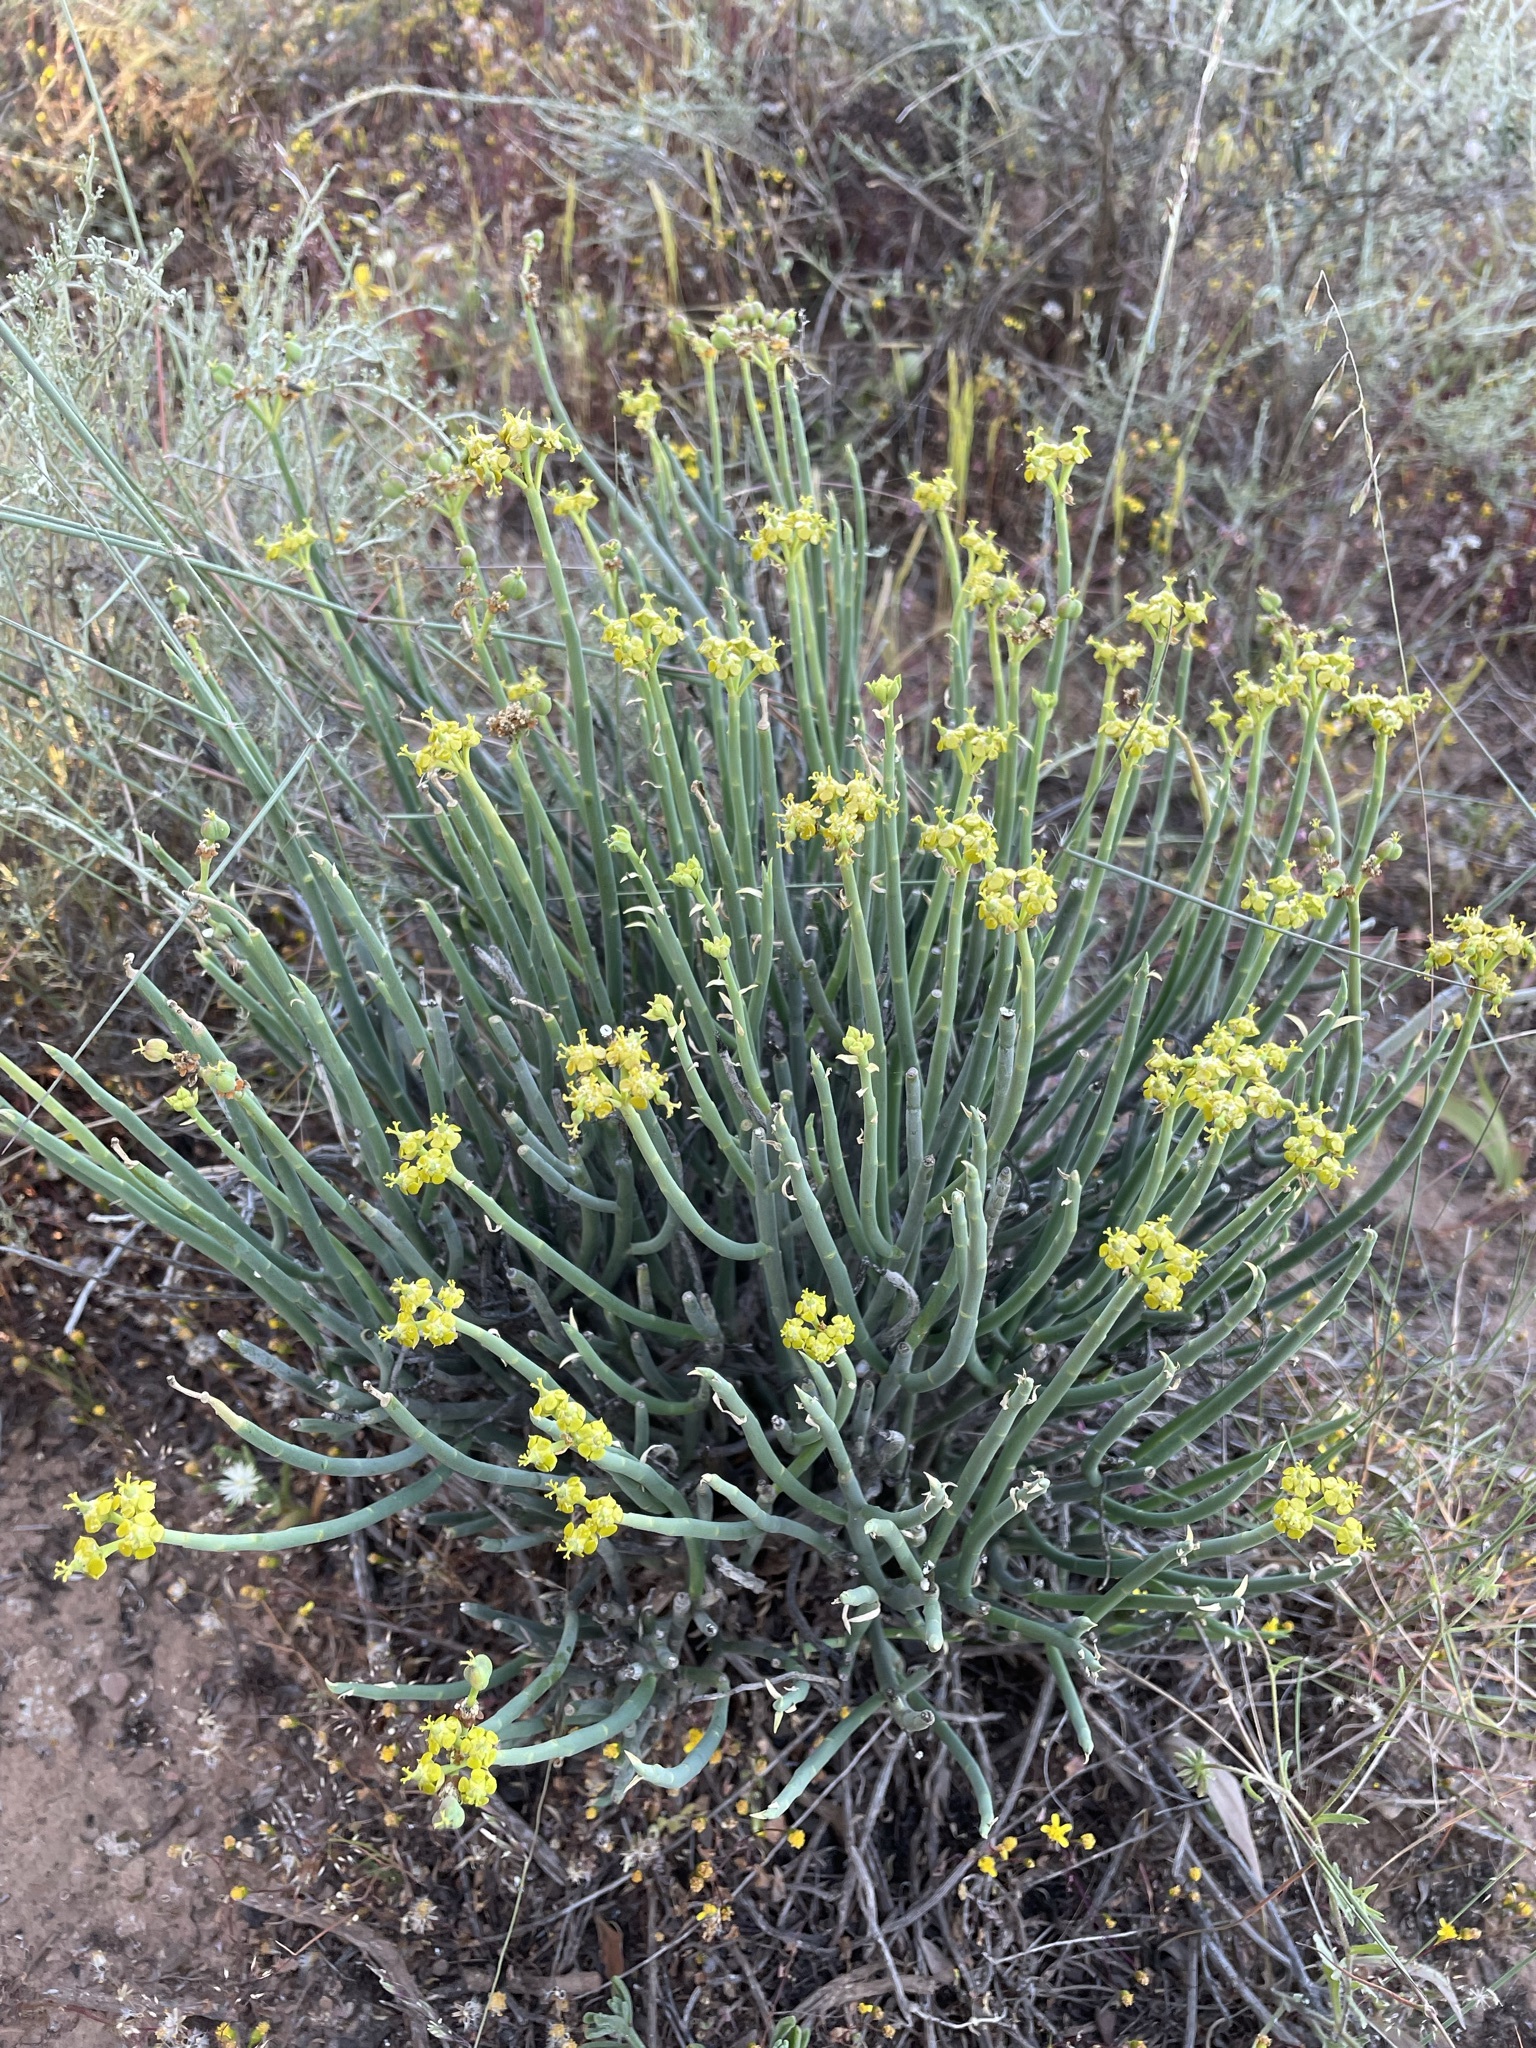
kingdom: Plantae
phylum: Tracheophyta
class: Magnoliopsida
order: Malpighiales
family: Euphorbiaceae
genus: Euphorbia
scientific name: Euphorbia mauritanica
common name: Jackal's-food
